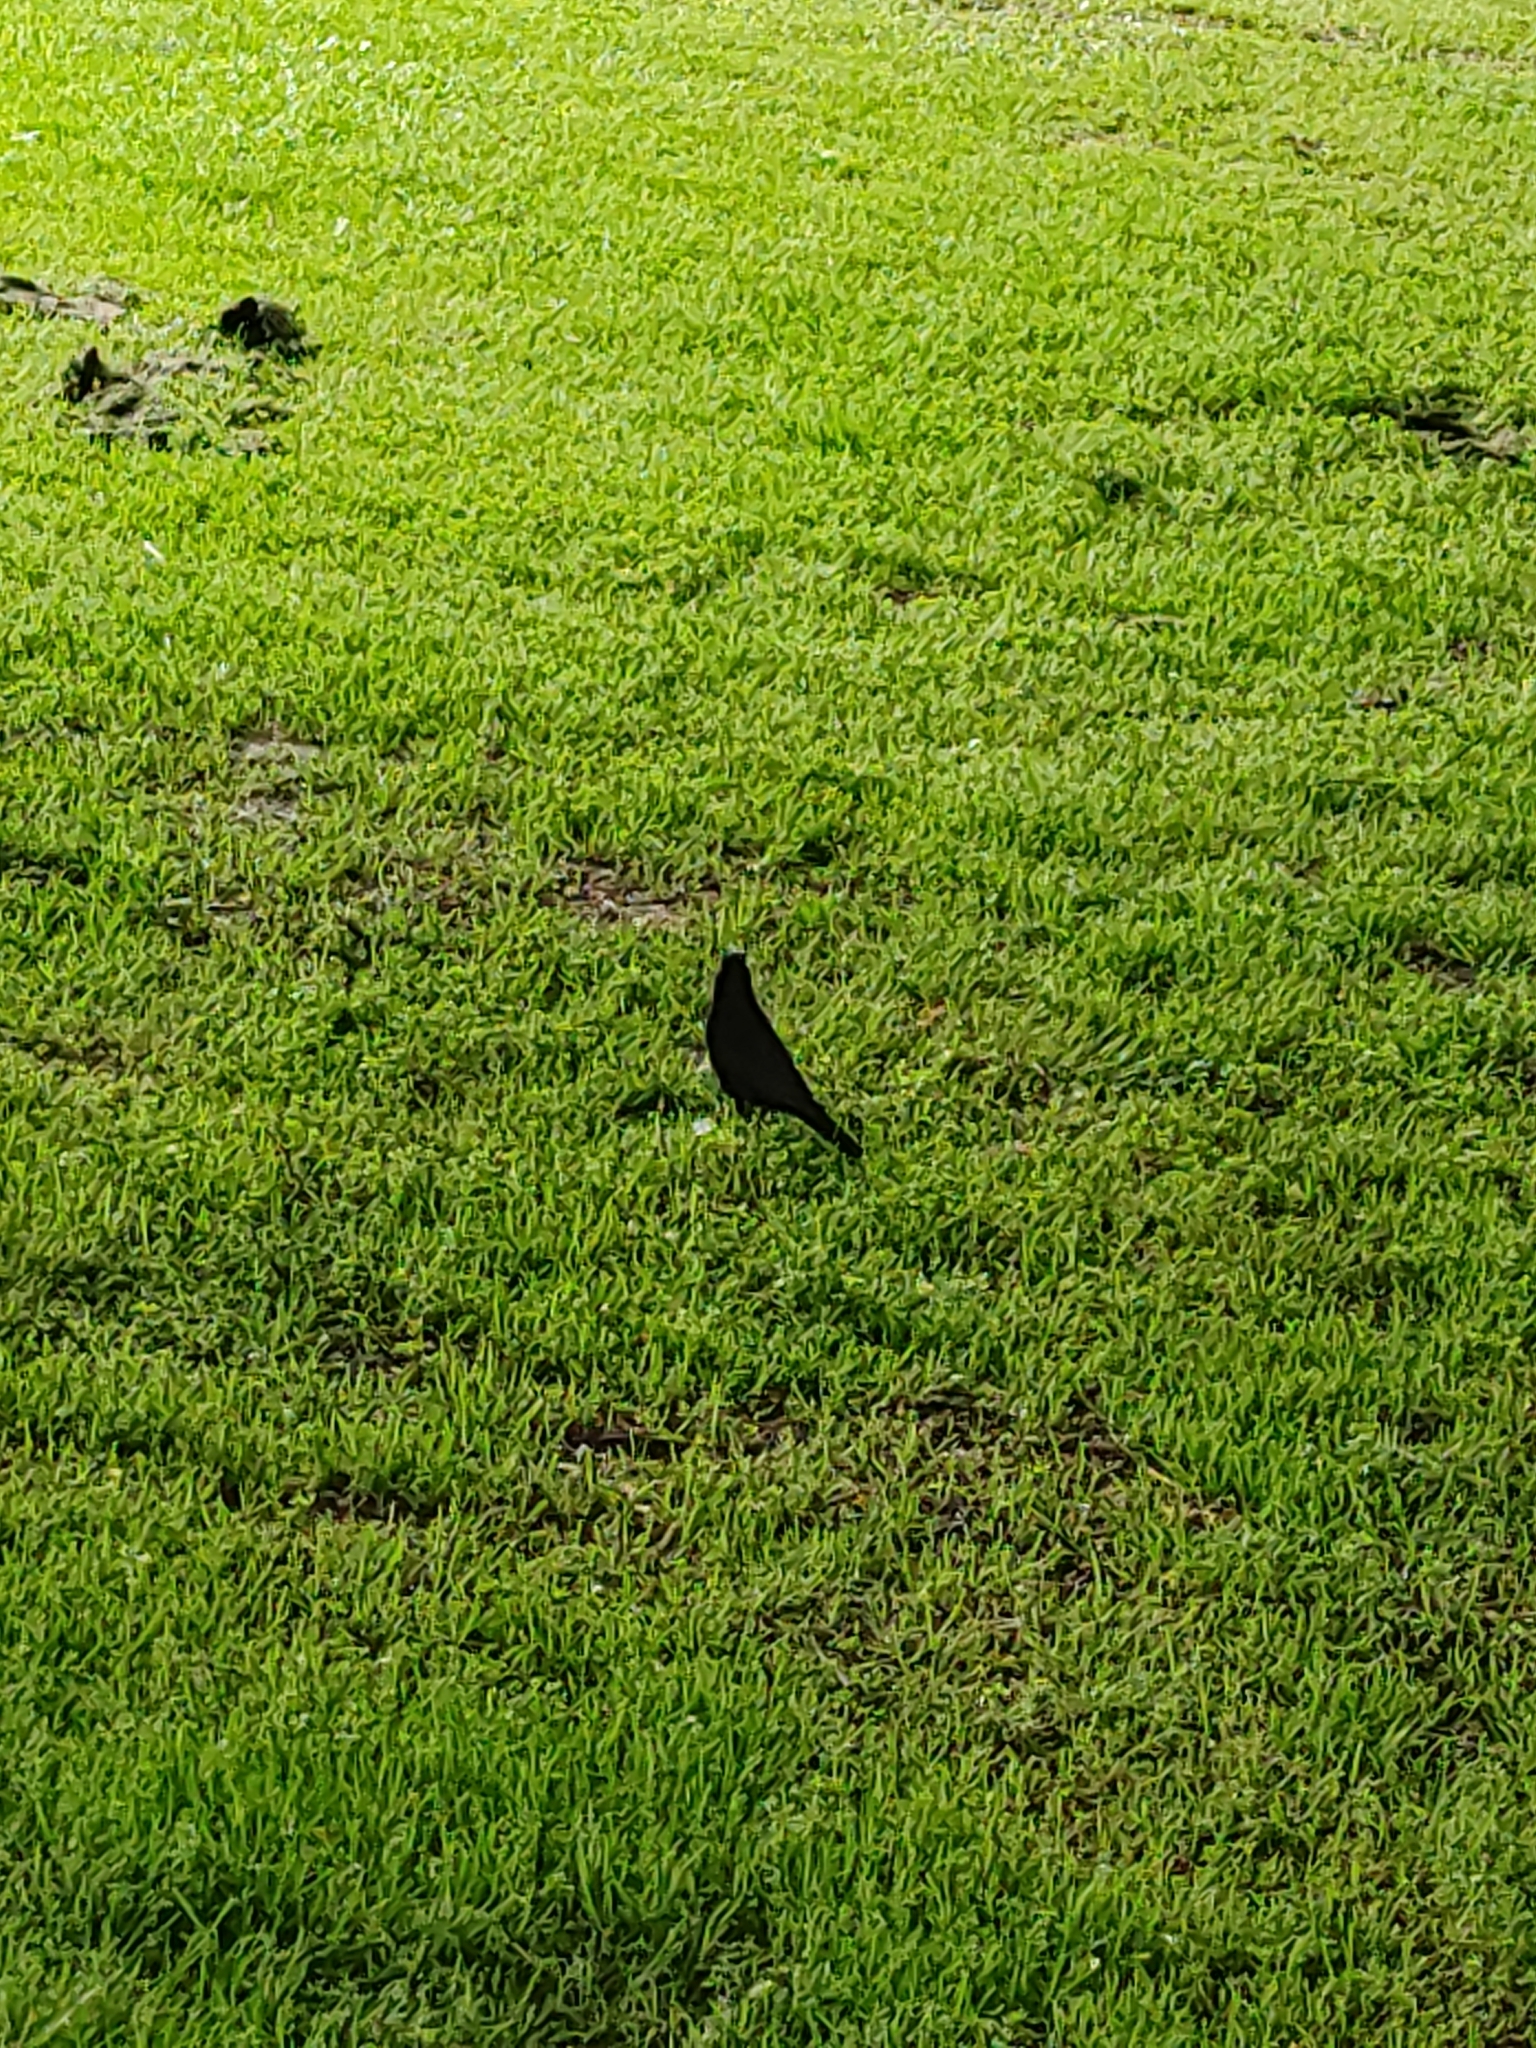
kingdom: Animalia
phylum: Chordata
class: Aves
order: Passeriformes
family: Turdidae
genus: Turdus
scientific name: Turdus merula
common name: Common blackbird
